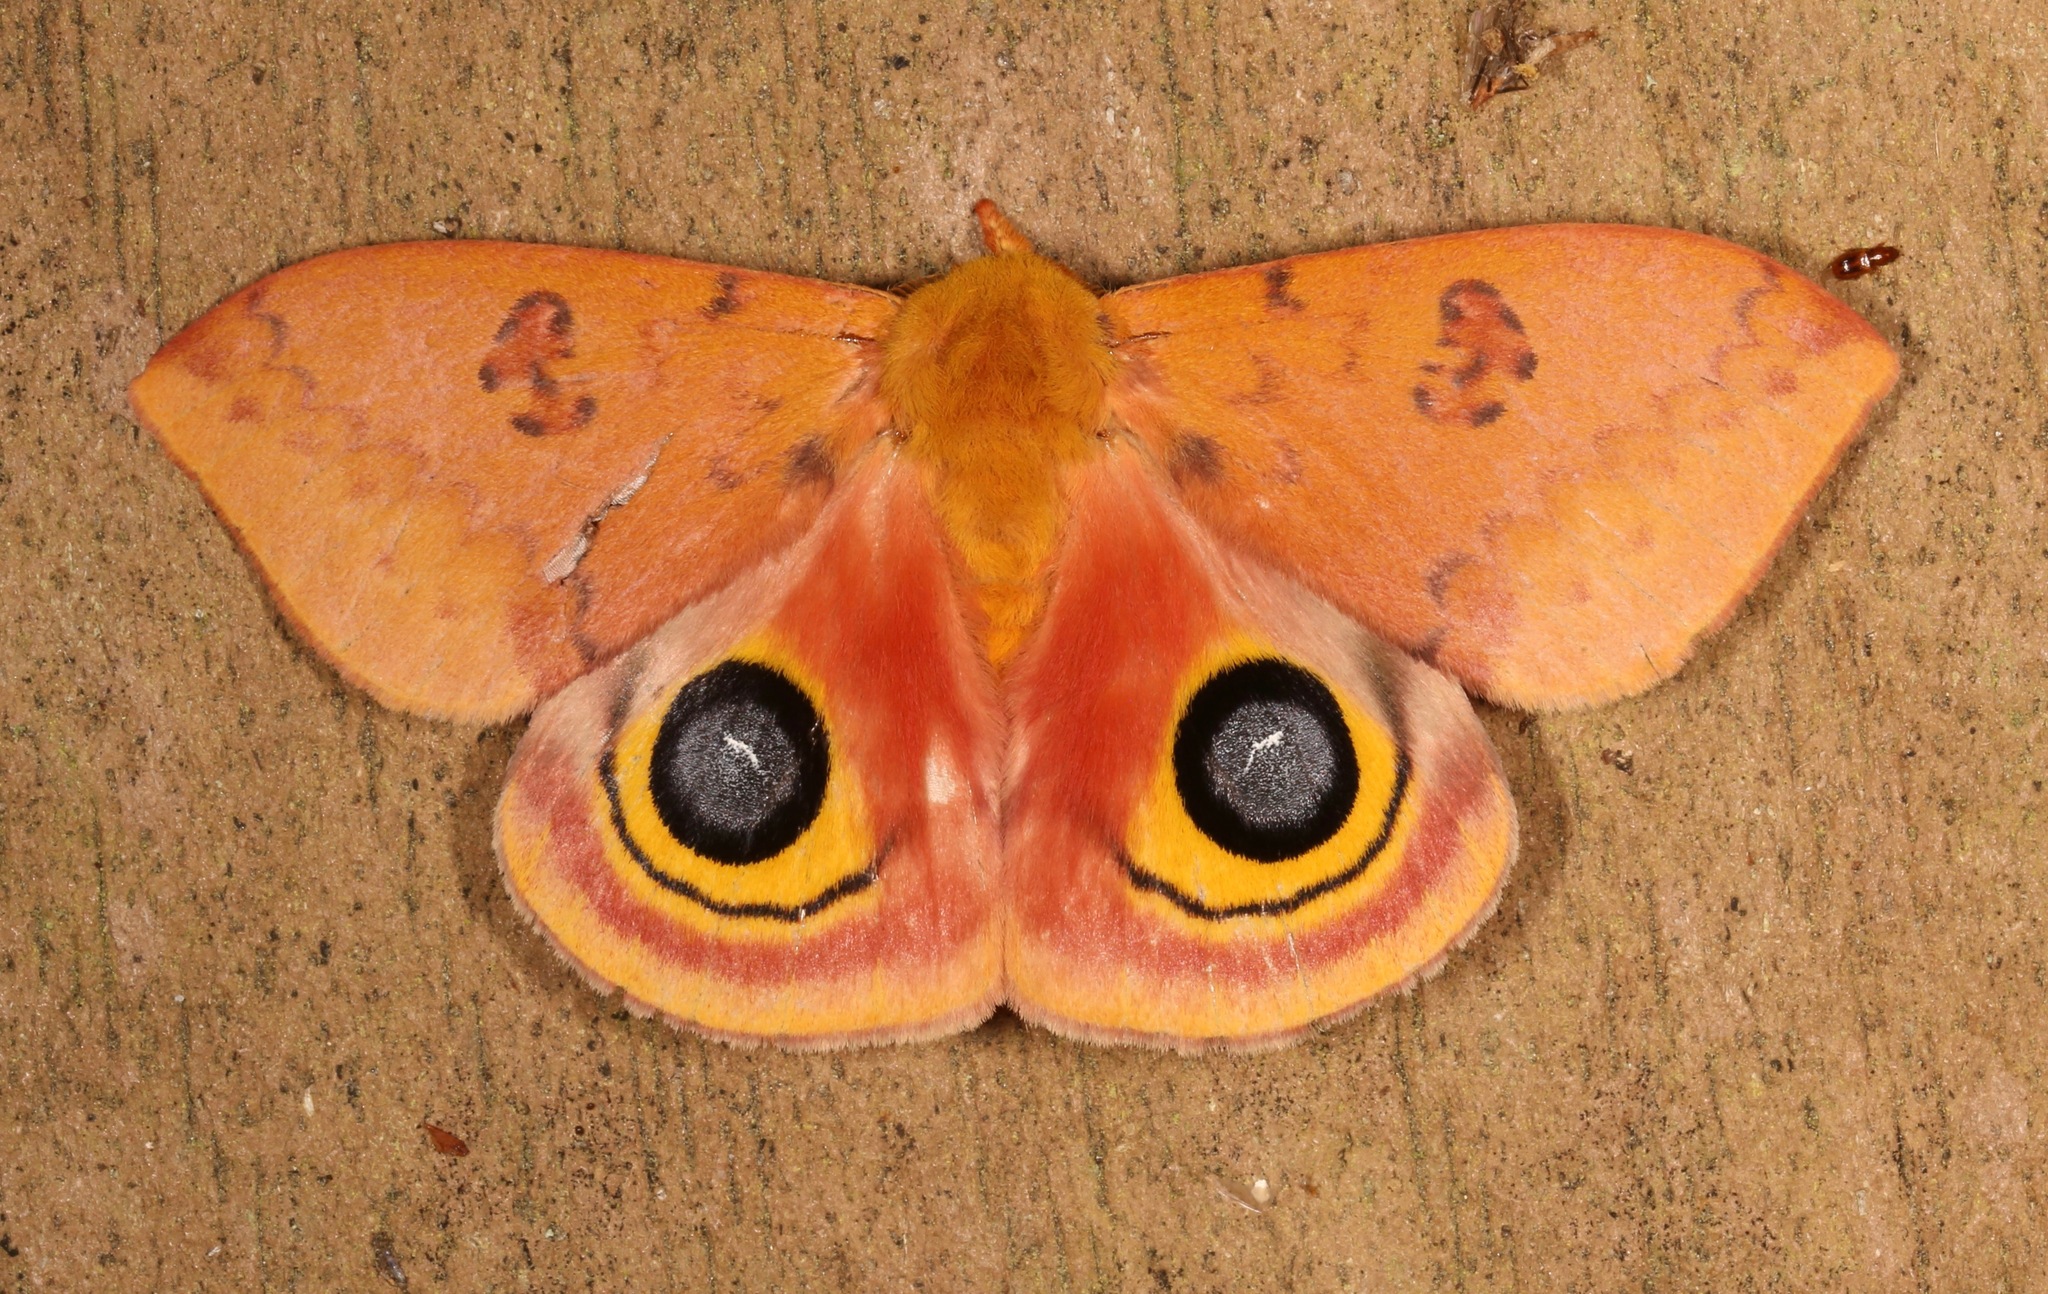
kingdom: Animalia
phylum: Arthropoda
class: Insecta
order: Lepidoptera
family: Saturniidae
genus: Automeris
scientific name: Automeris io
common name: Io moth
